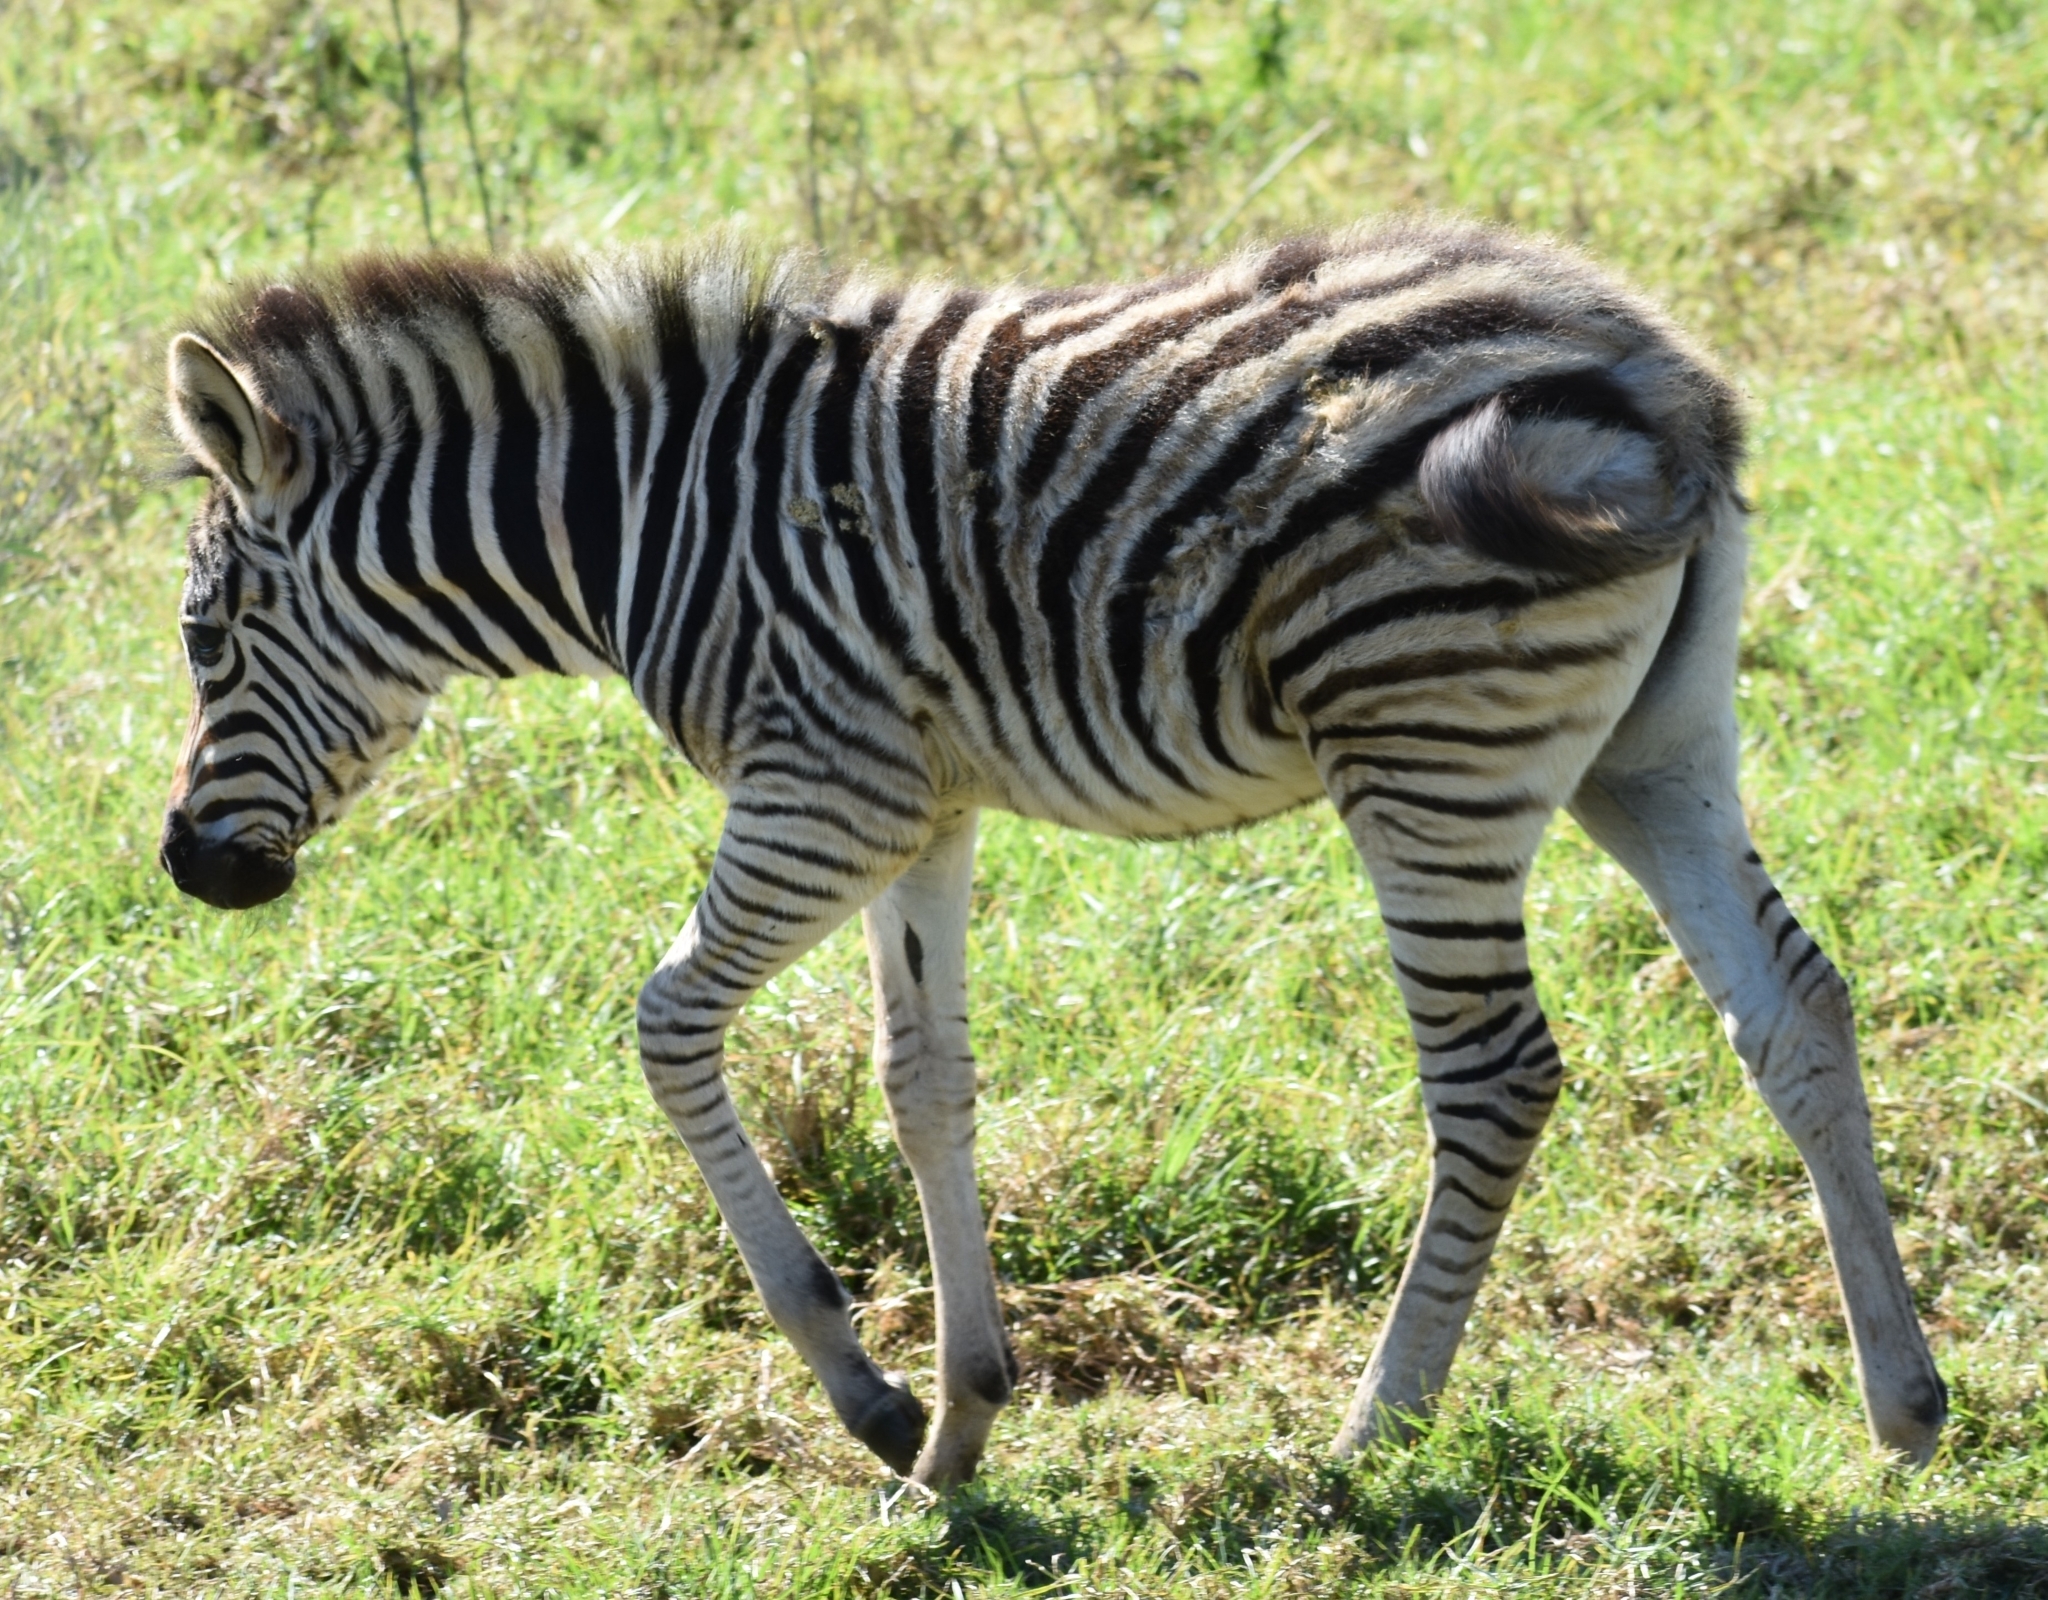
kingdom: Animalia
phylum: Chordata
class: Mammalia
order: Perissodactyla
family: Equidae
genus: Equus
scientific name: Equus quagga
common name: Plains zebra
